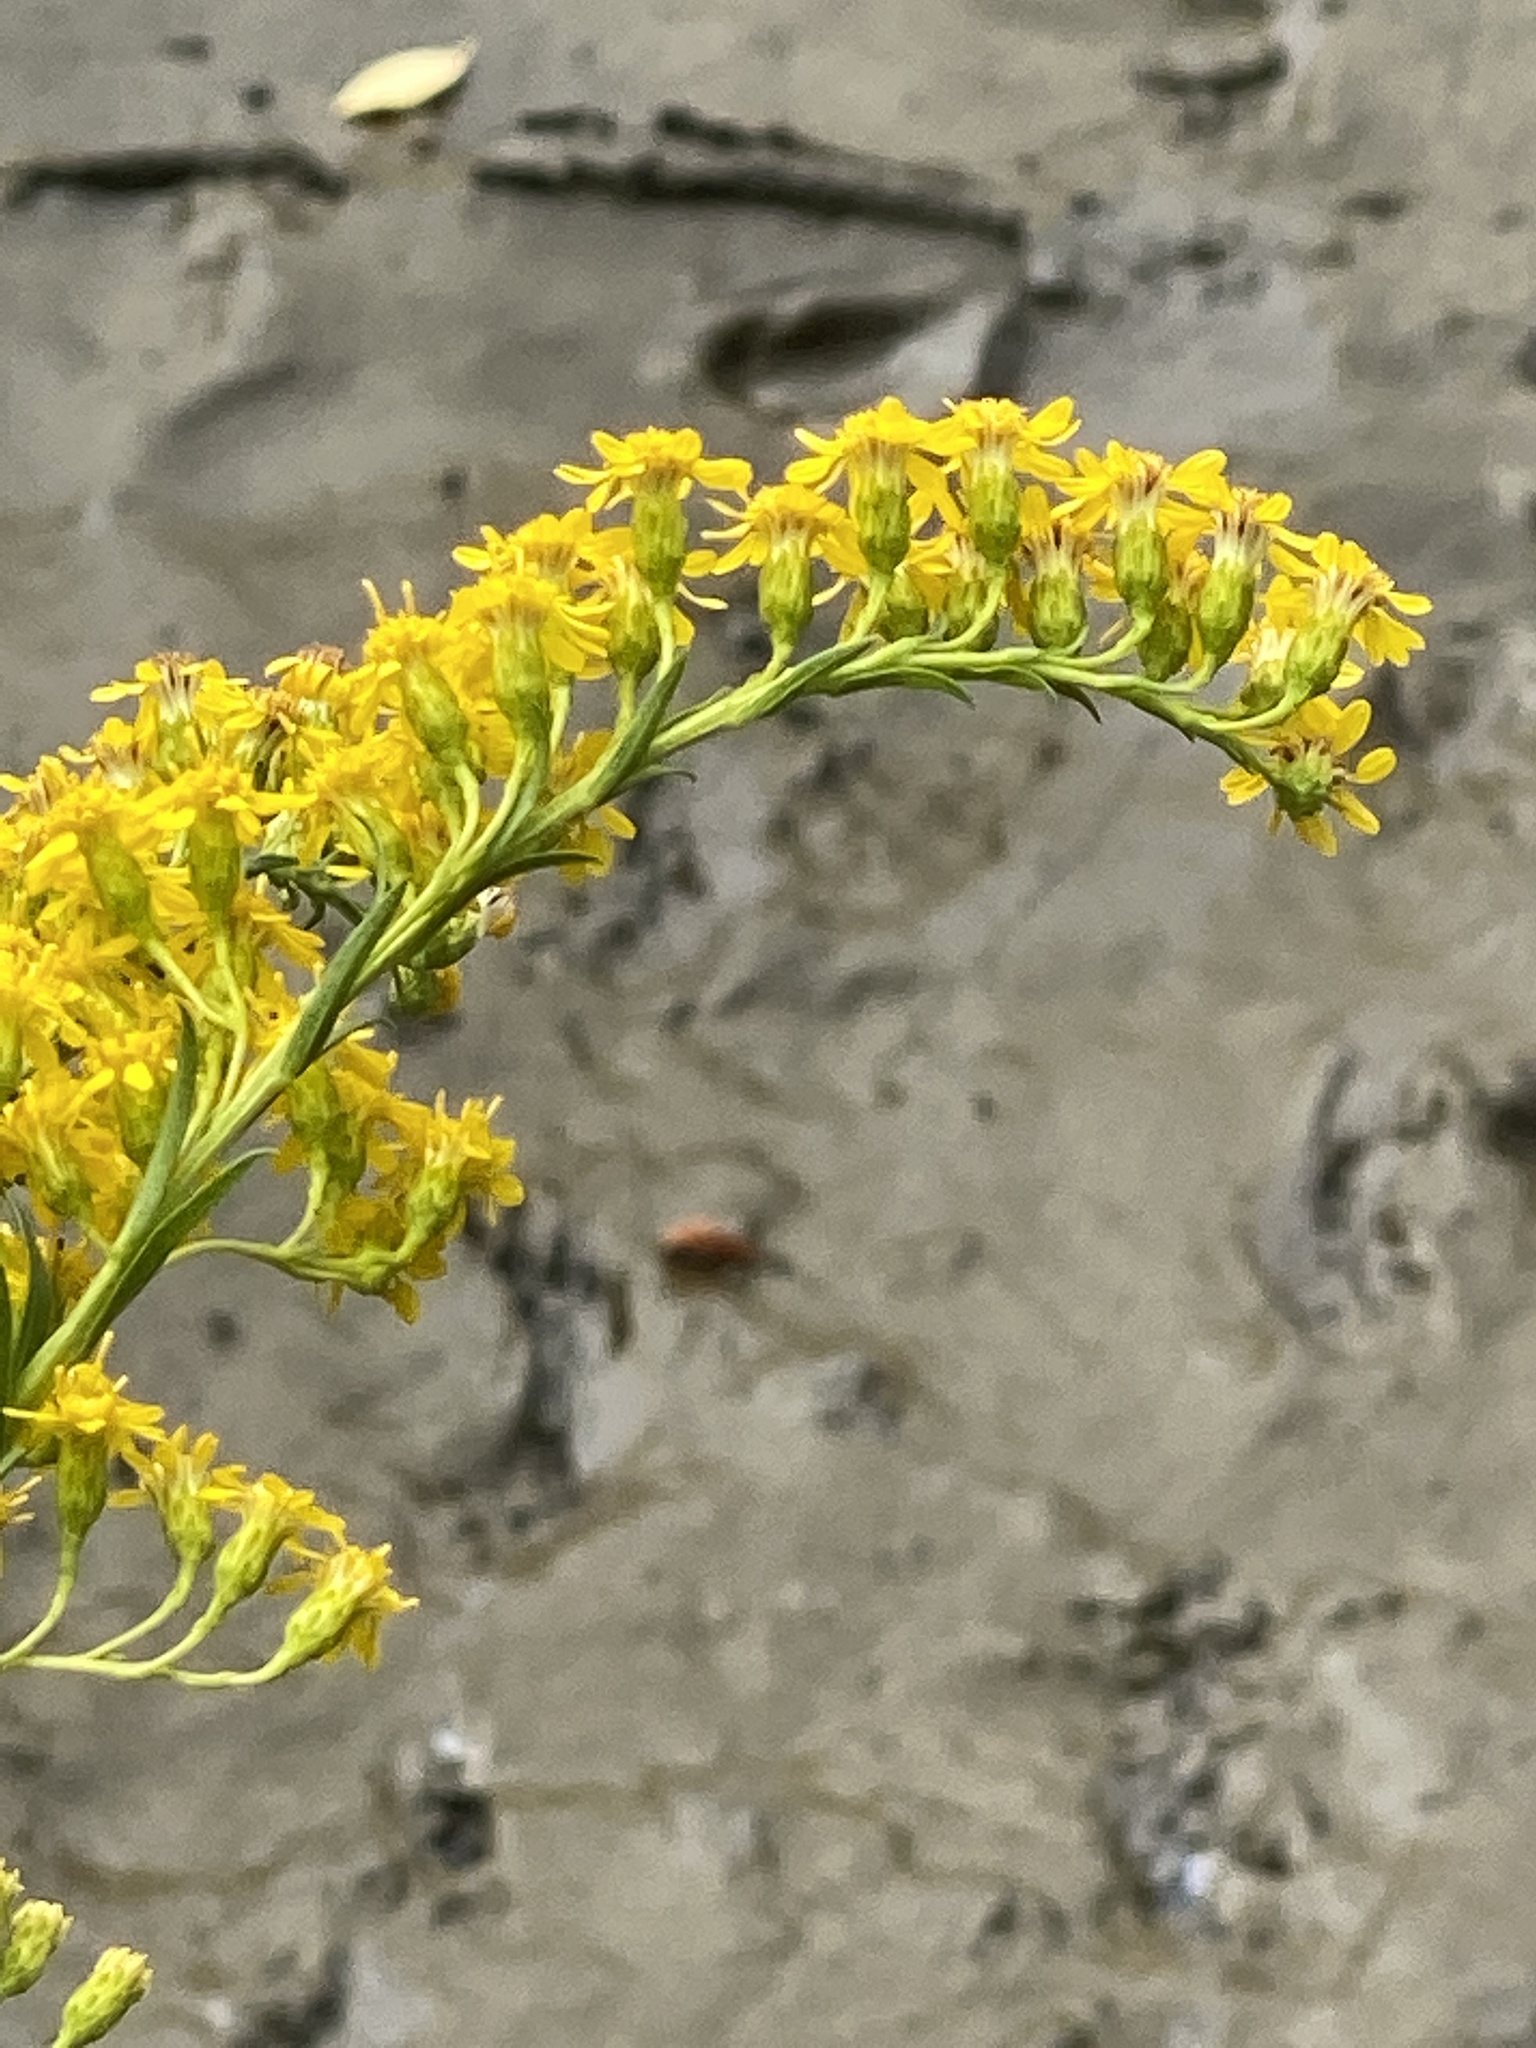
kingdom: Plantae
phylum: Tracheophyta
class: Magnoliopsida
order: Asterales
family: Asteraceae
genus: Solidago
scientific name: Solidago sempervirens
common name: Salt-marsh goldenrod
